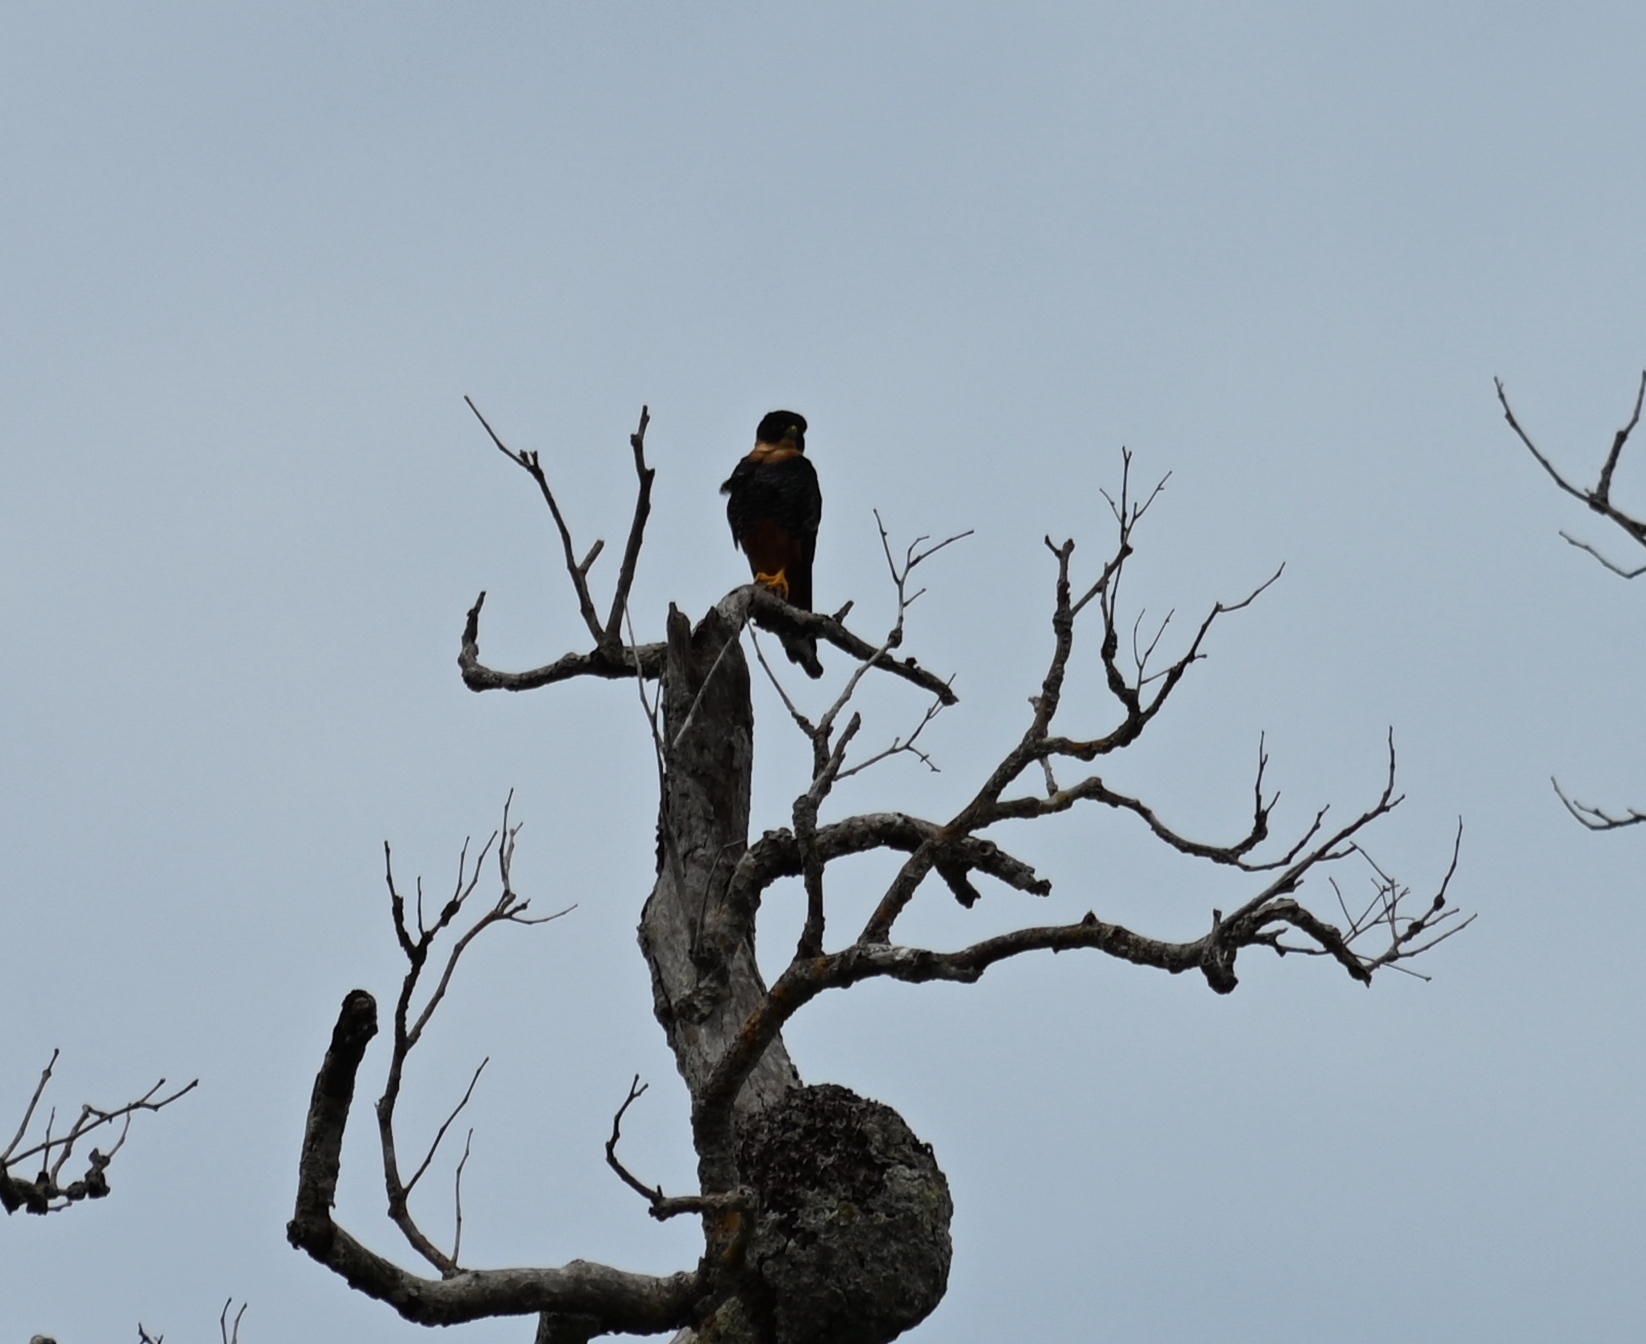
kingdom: Animalia
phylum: Chordata
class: Aves
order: Falconiformes
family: Falconidae
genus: Falco
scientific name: Falco rufigularis
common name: Bat falcon
